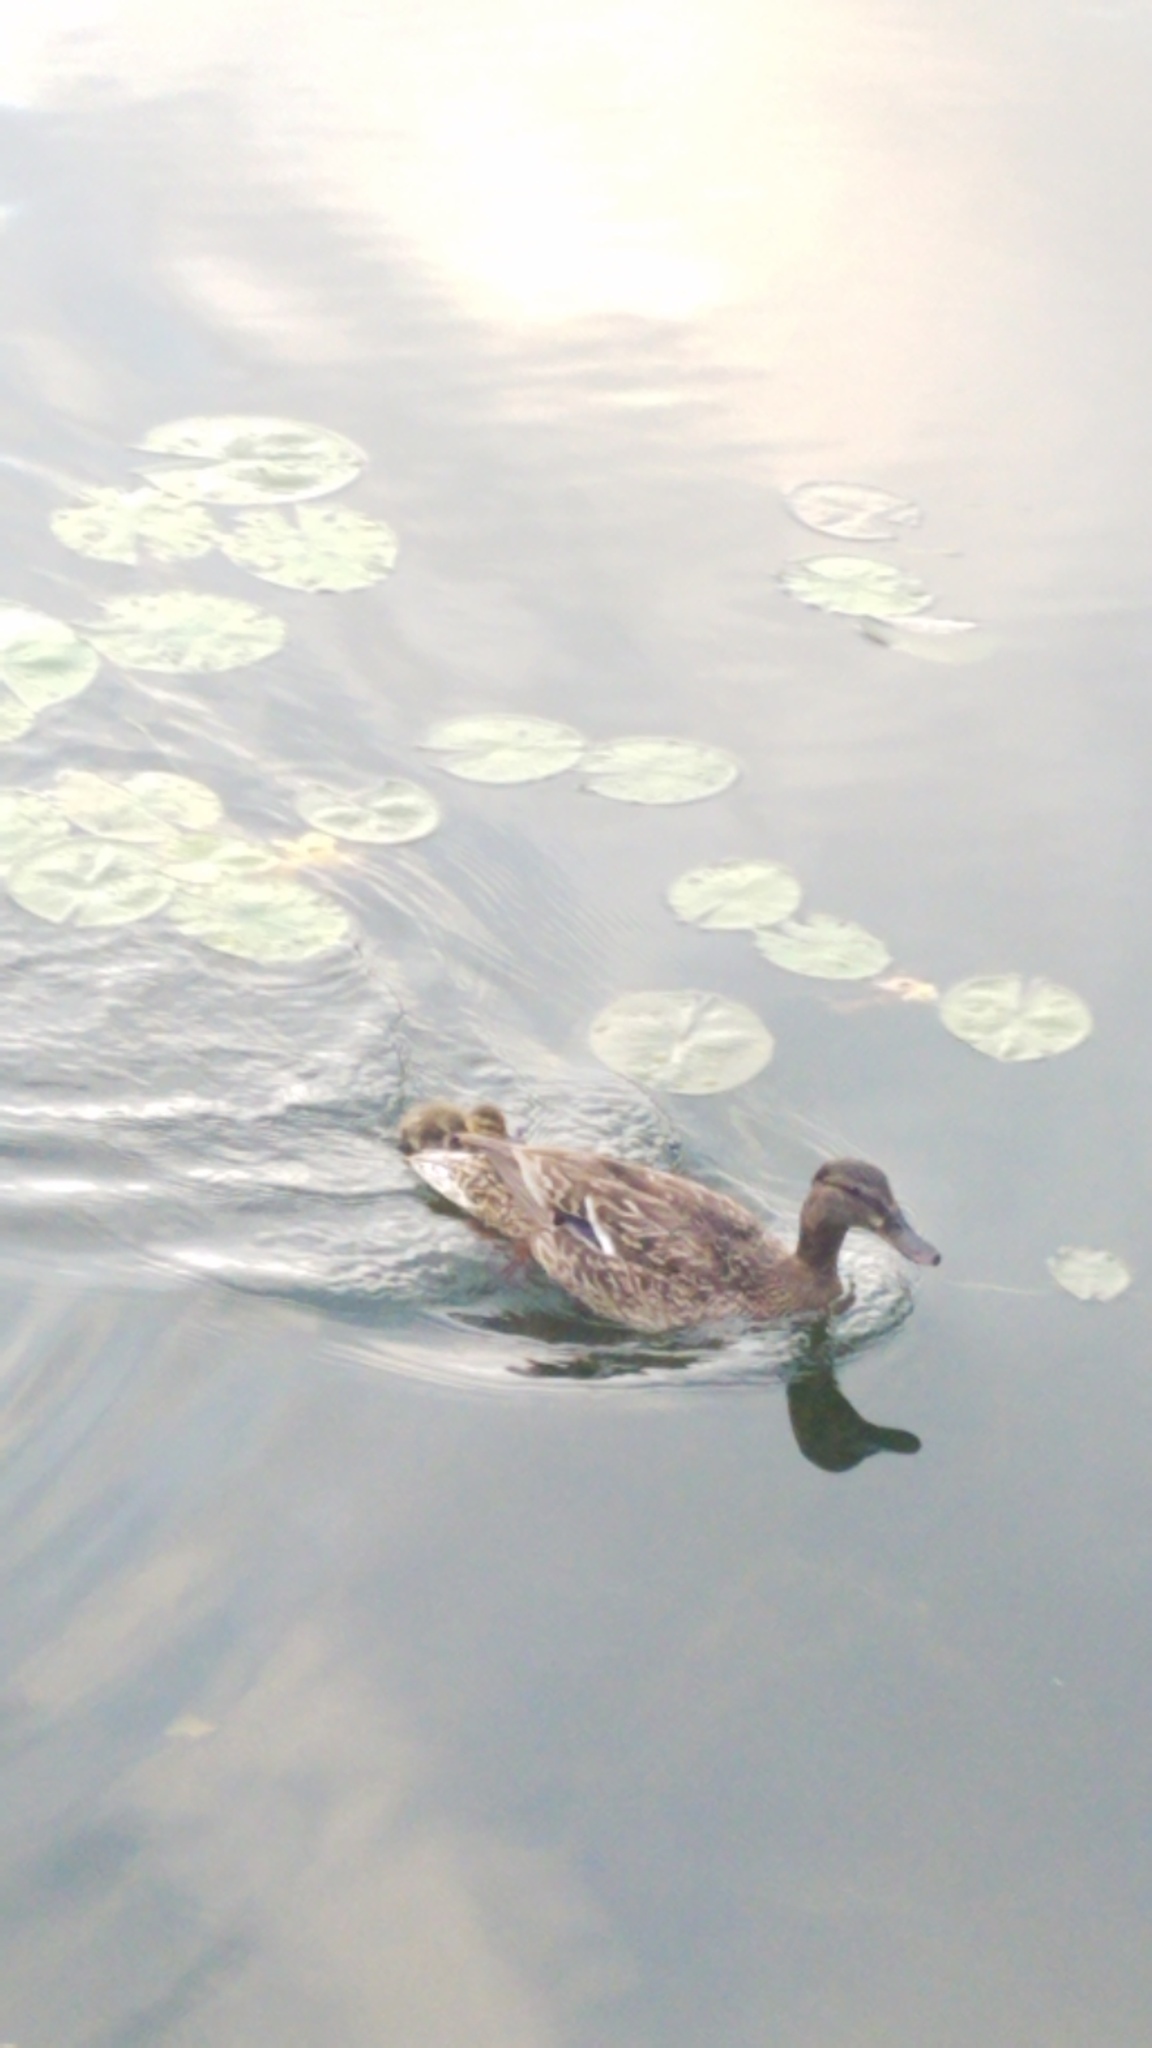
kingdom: Animalia
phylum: Chordata
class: Aves
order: Anseriformes
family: Anatidae
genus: Anas
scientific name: Anas platyrhynchos
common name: Mallard
